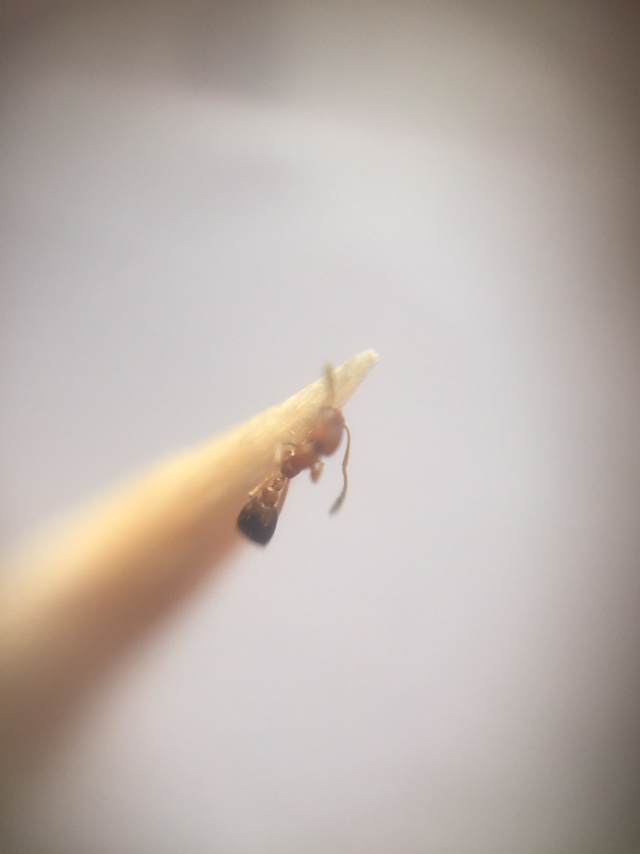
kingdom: Animalia
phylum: Arthropoda
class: Insecta
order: Hymenoptera
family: Formicidae
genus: Monomorium
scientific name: Monomorium sahlbergi
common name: Ant
